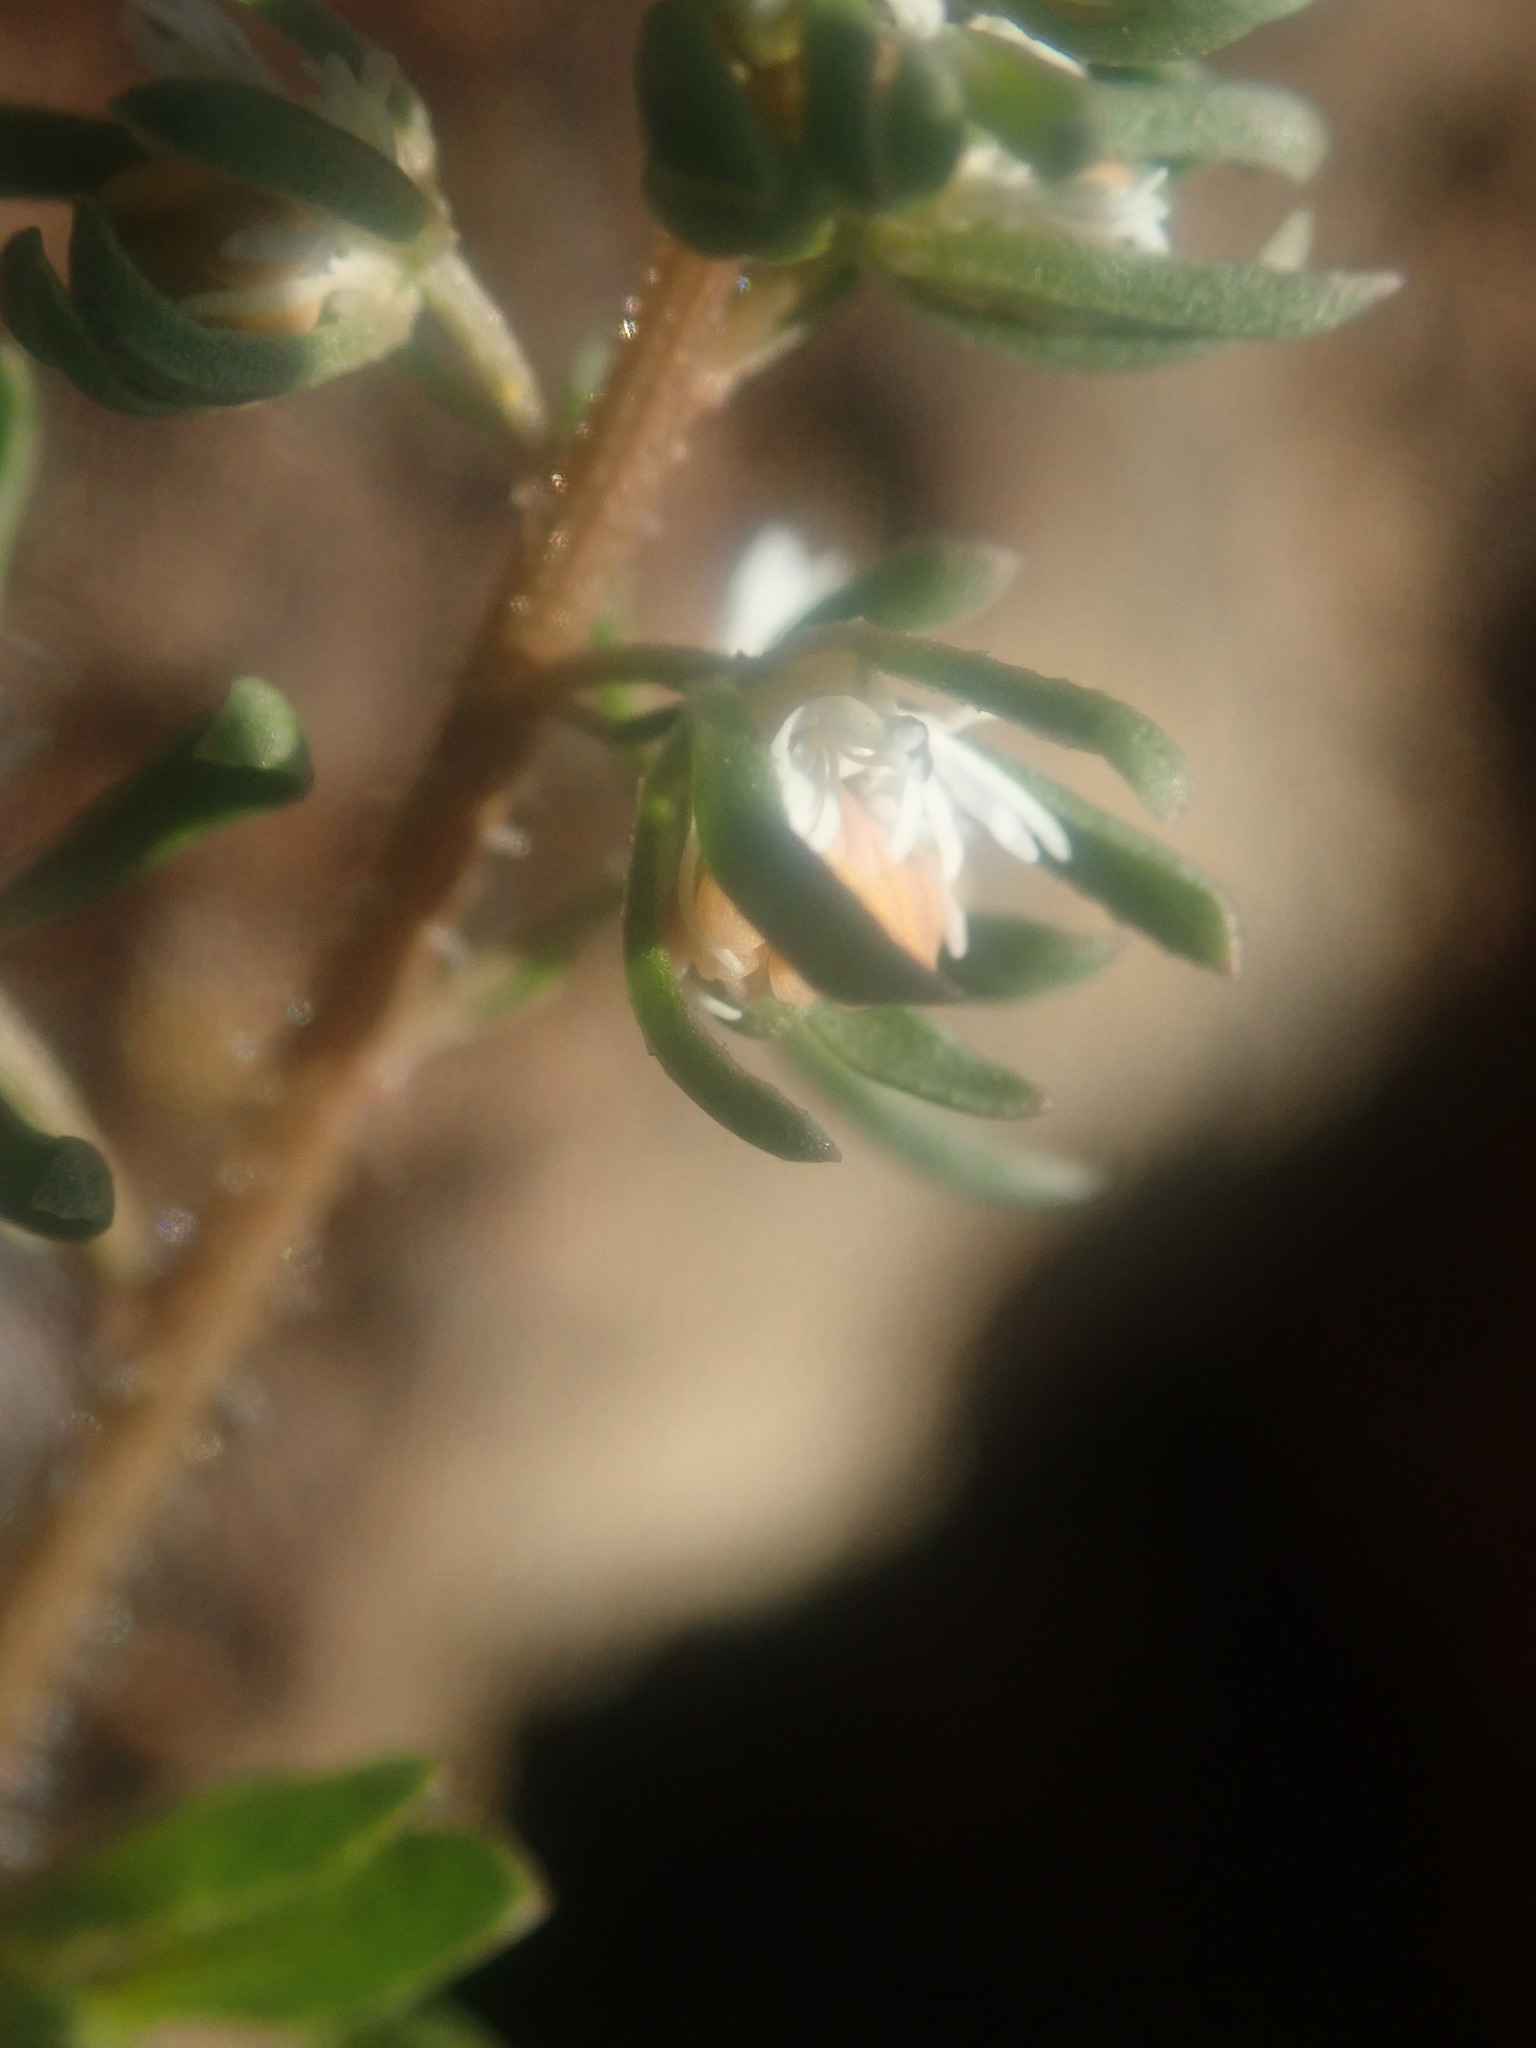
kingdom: Plantae
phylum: Tracheophyta
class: Magnoliopsida
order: Brassicales
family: Resedaceae
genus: Reseda
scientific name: Reseda media
